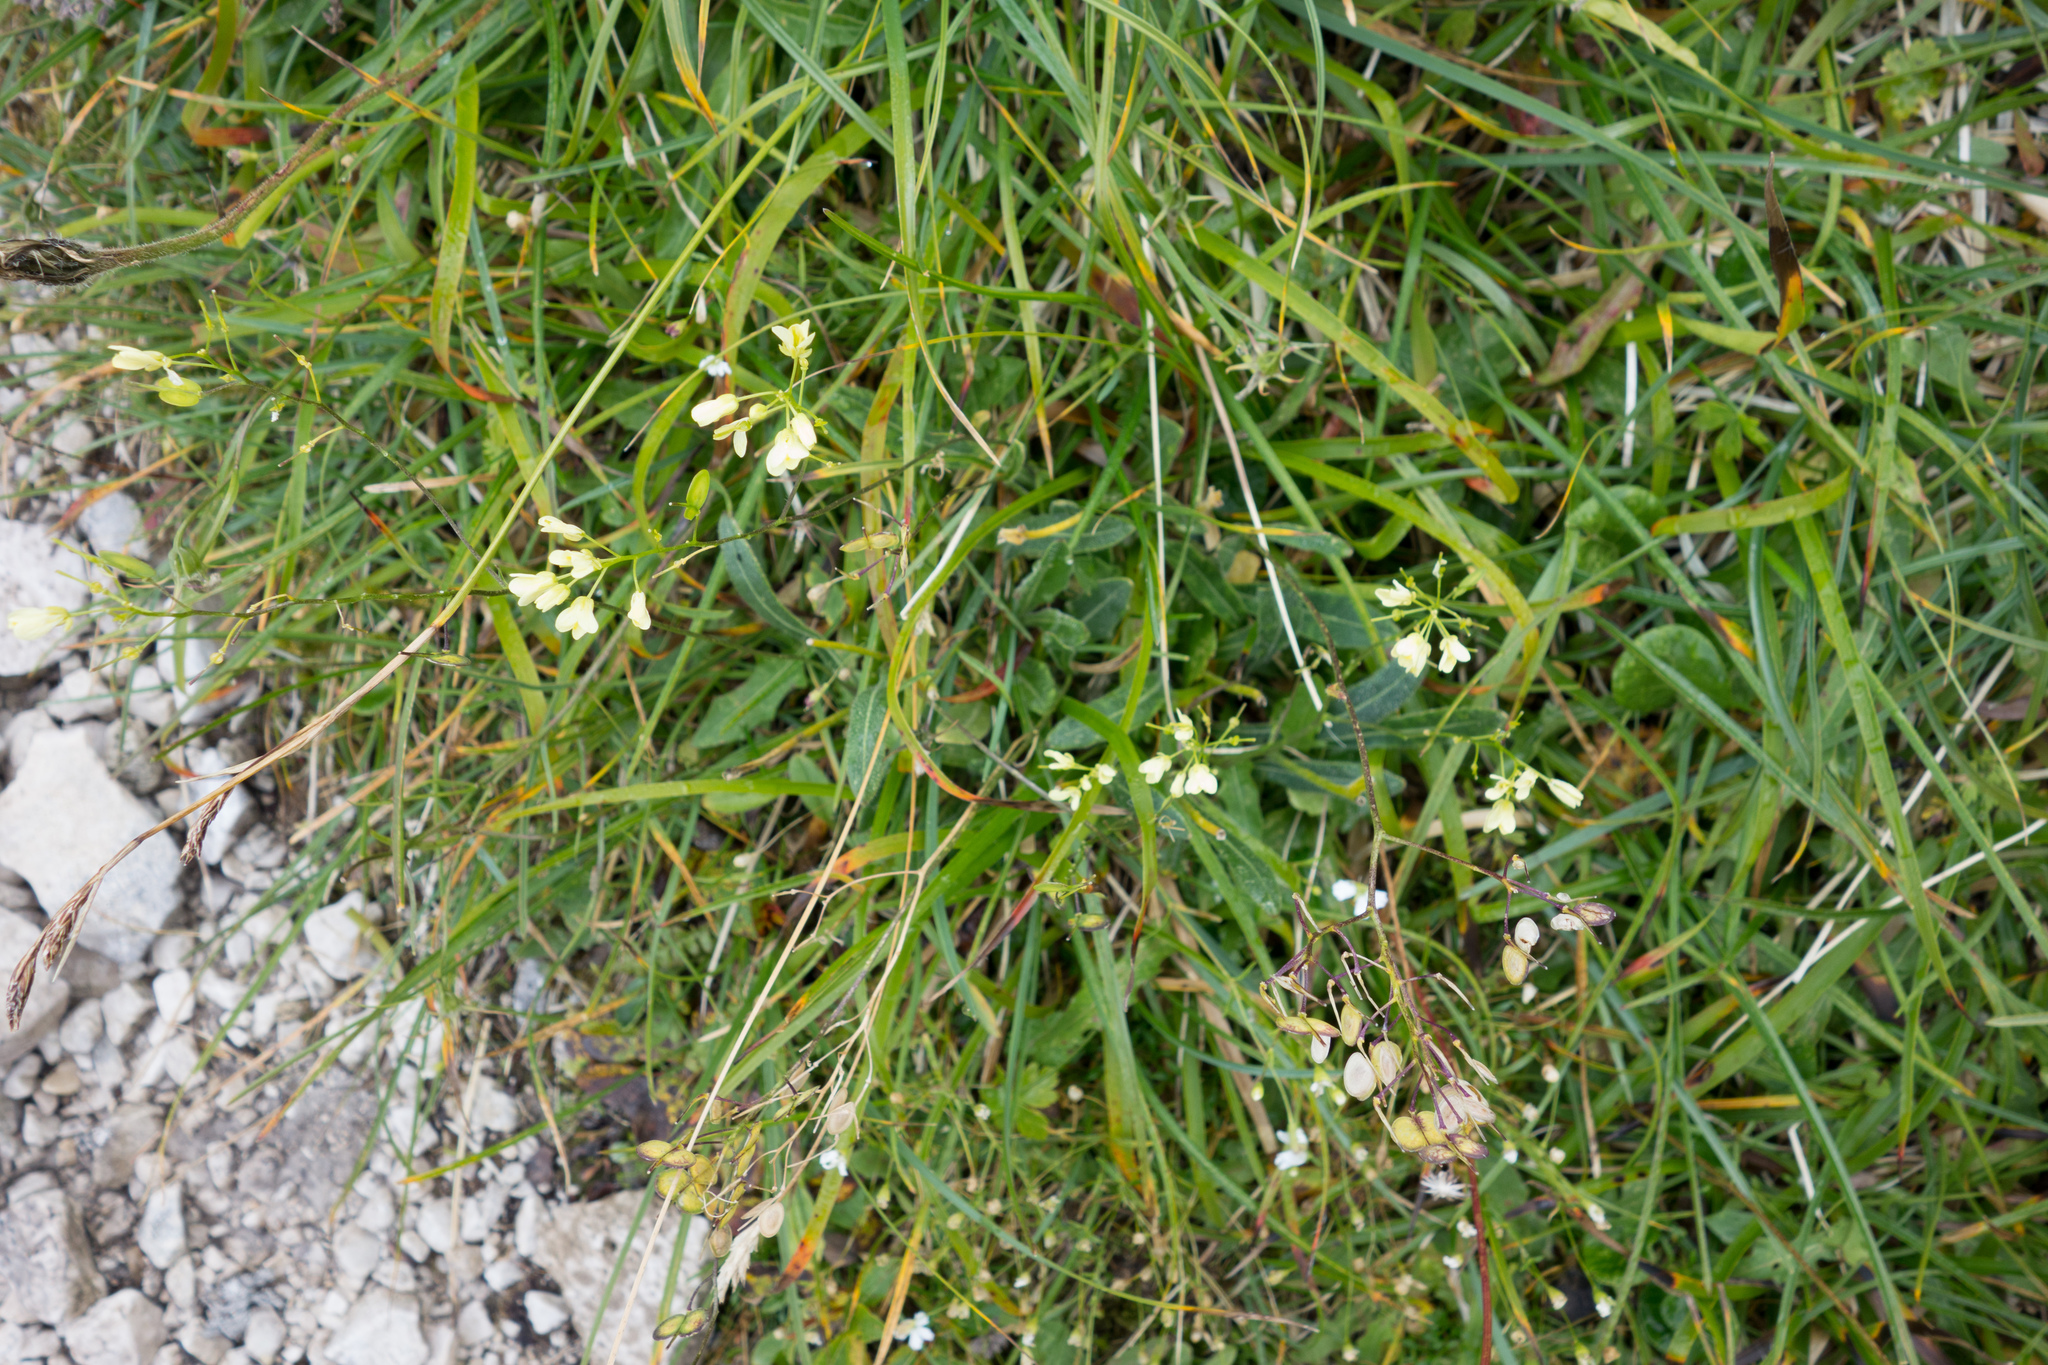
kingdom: Plantae
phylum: Tracheophyta
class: Magnoliopsida
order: Brassicales
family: Brassicaceae
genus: Biscutella
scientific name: Biscutella laevigata
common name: Buckler mustard
